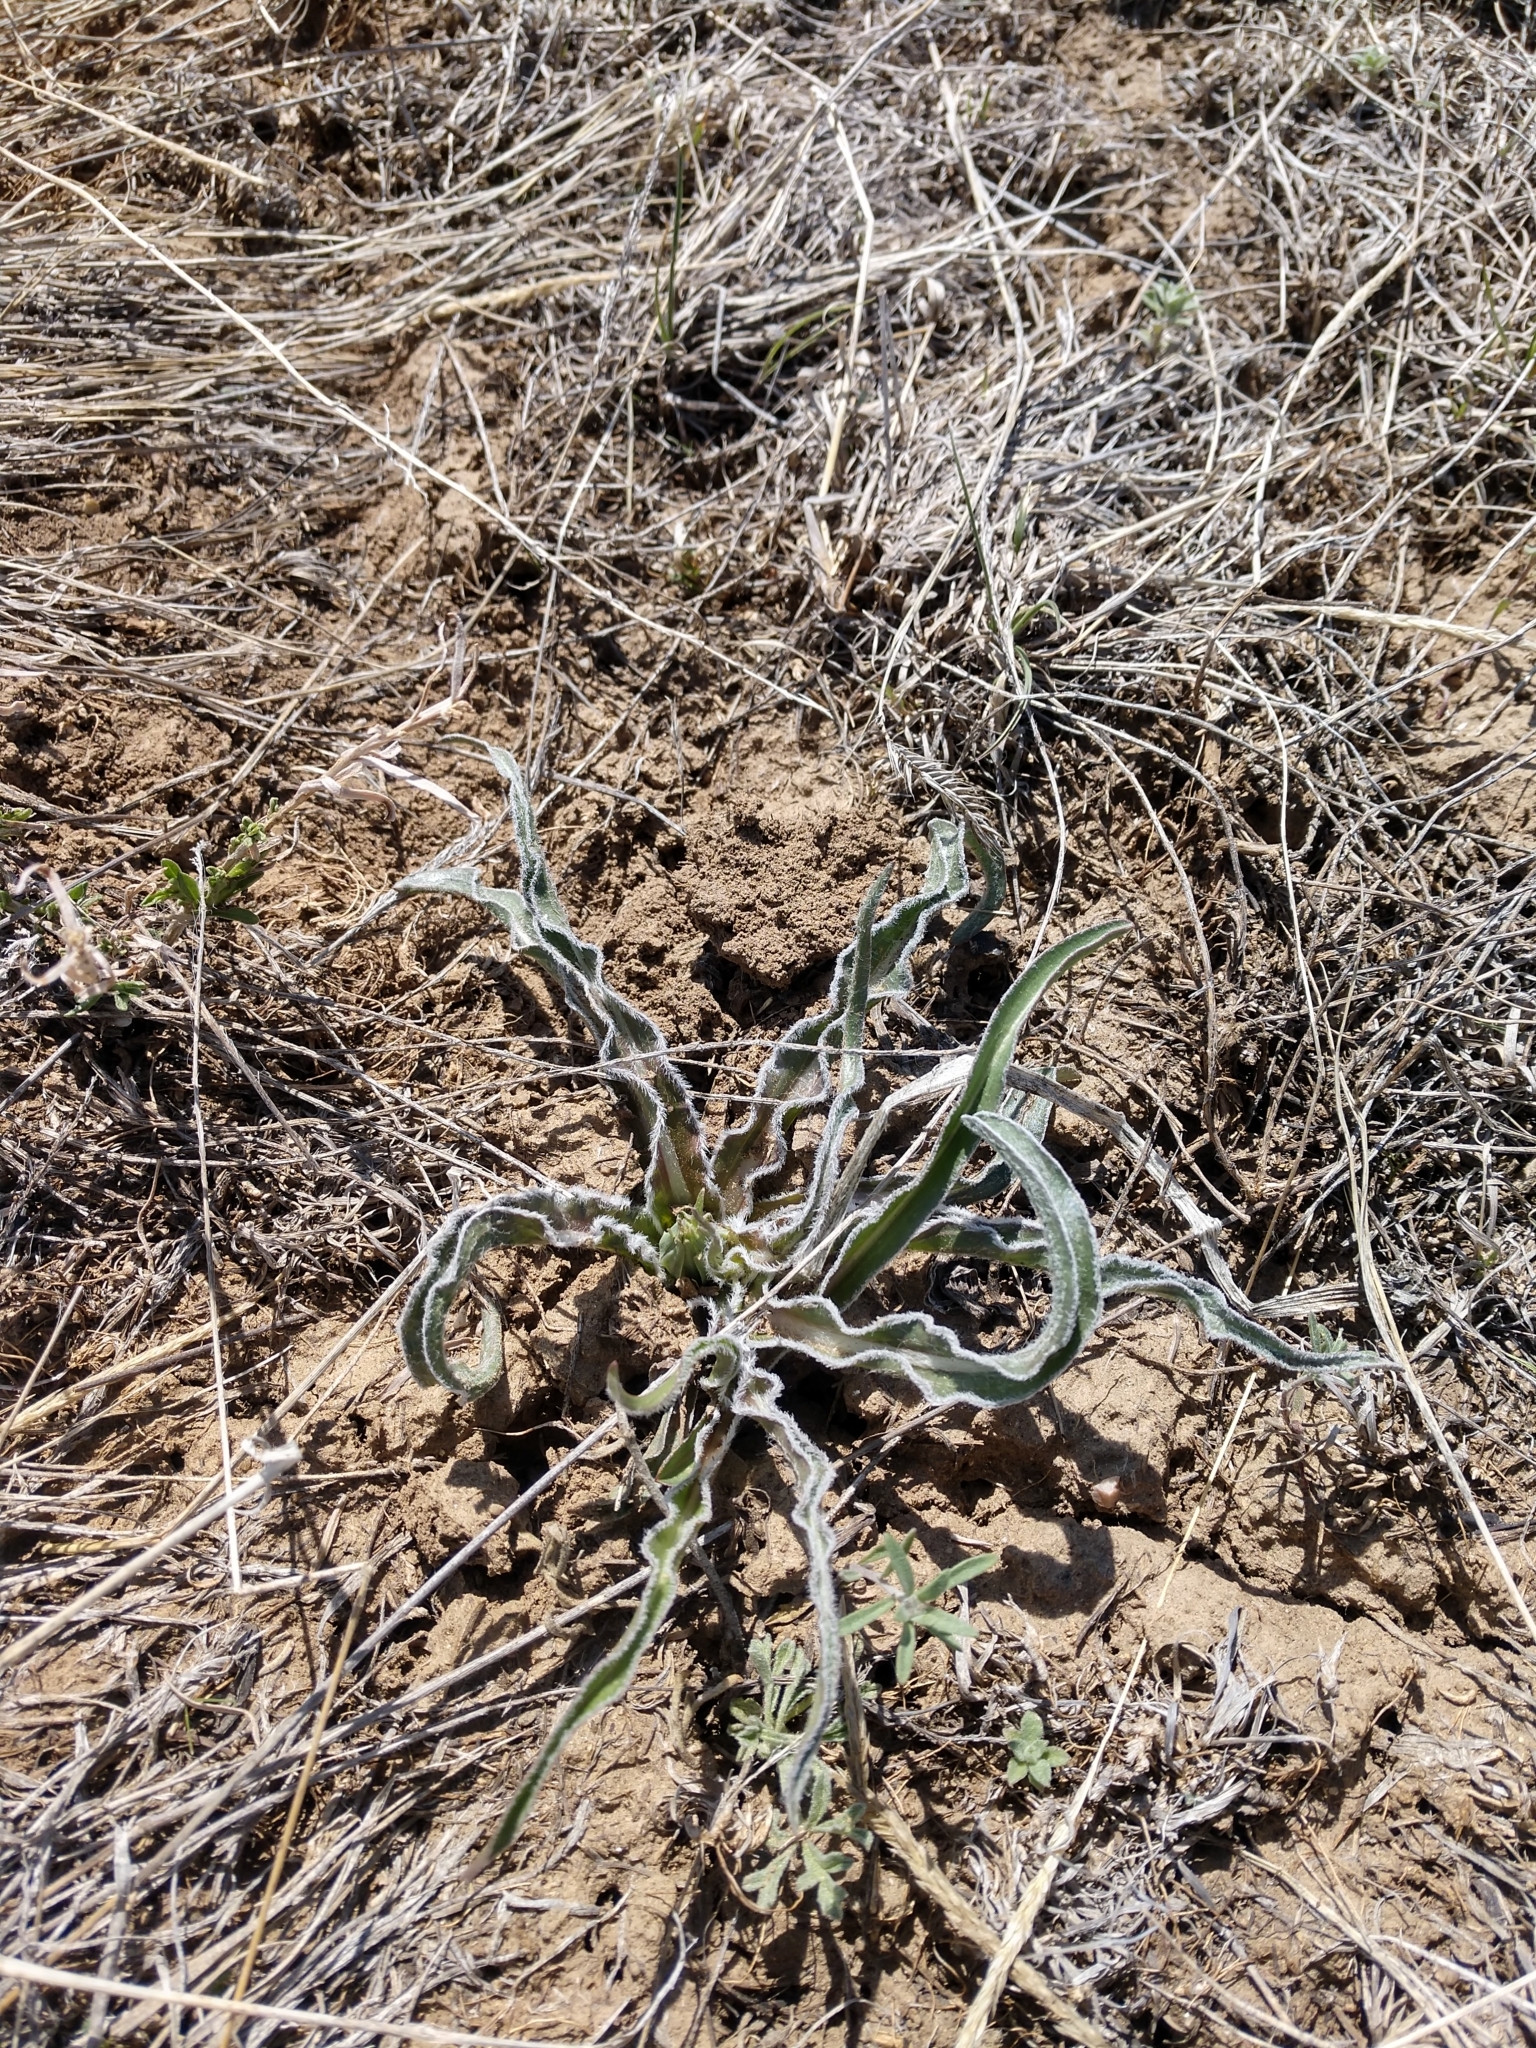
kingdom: Plantae
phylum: Tracheophyta
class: Magnoliopsida
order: Asterales
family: Asteraceae
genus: Microseris
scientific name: Microseris cuspidata
